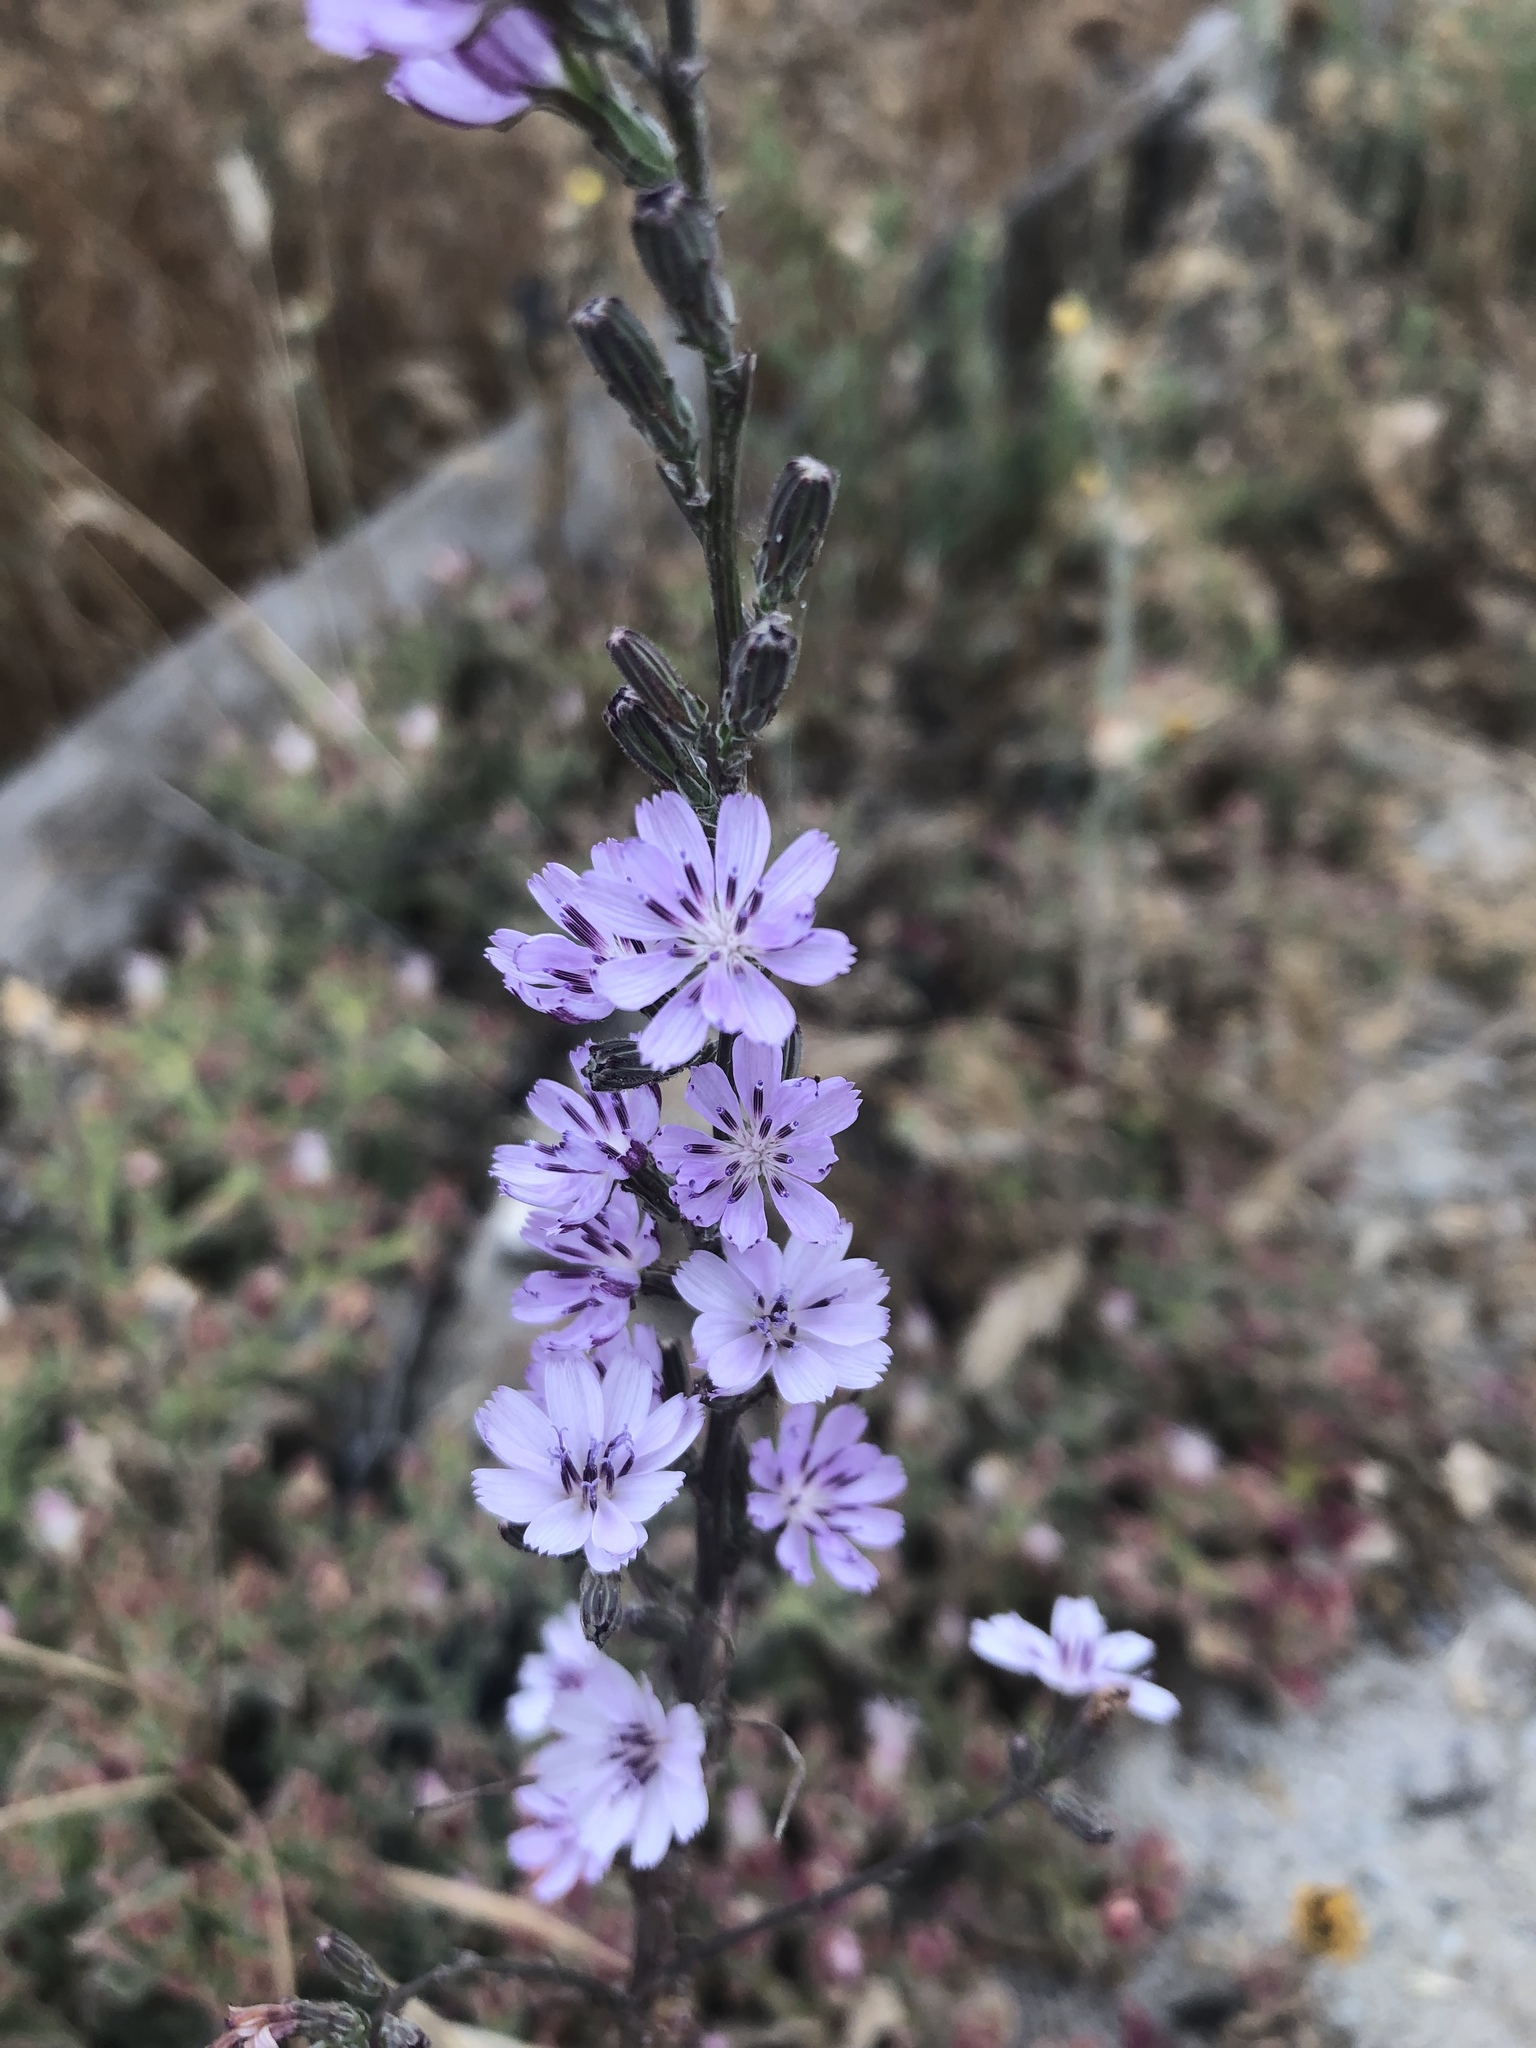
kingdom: Plantae
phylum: Tracheophyta
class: Magnoliopsida
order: Asterales
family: Asteraceae
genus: Stephanomeria
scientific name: Stephanomeria diegensis
